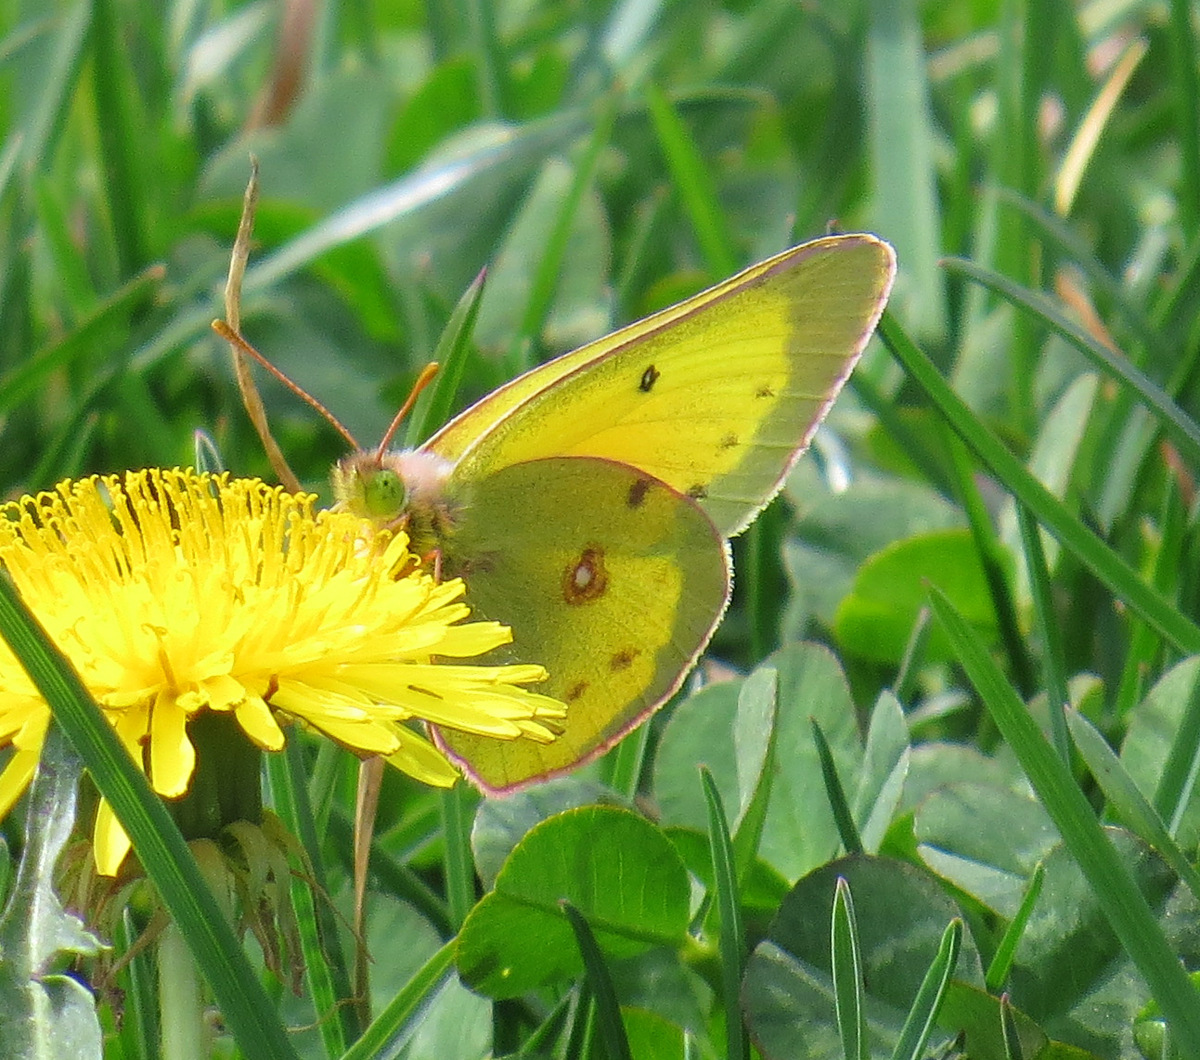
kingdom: Animalia
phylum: Arthropoda
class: Insecta
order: Lepidoptera
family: Pieridae
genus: Colias
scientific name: Colias philodice
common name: Clouded sulphur
